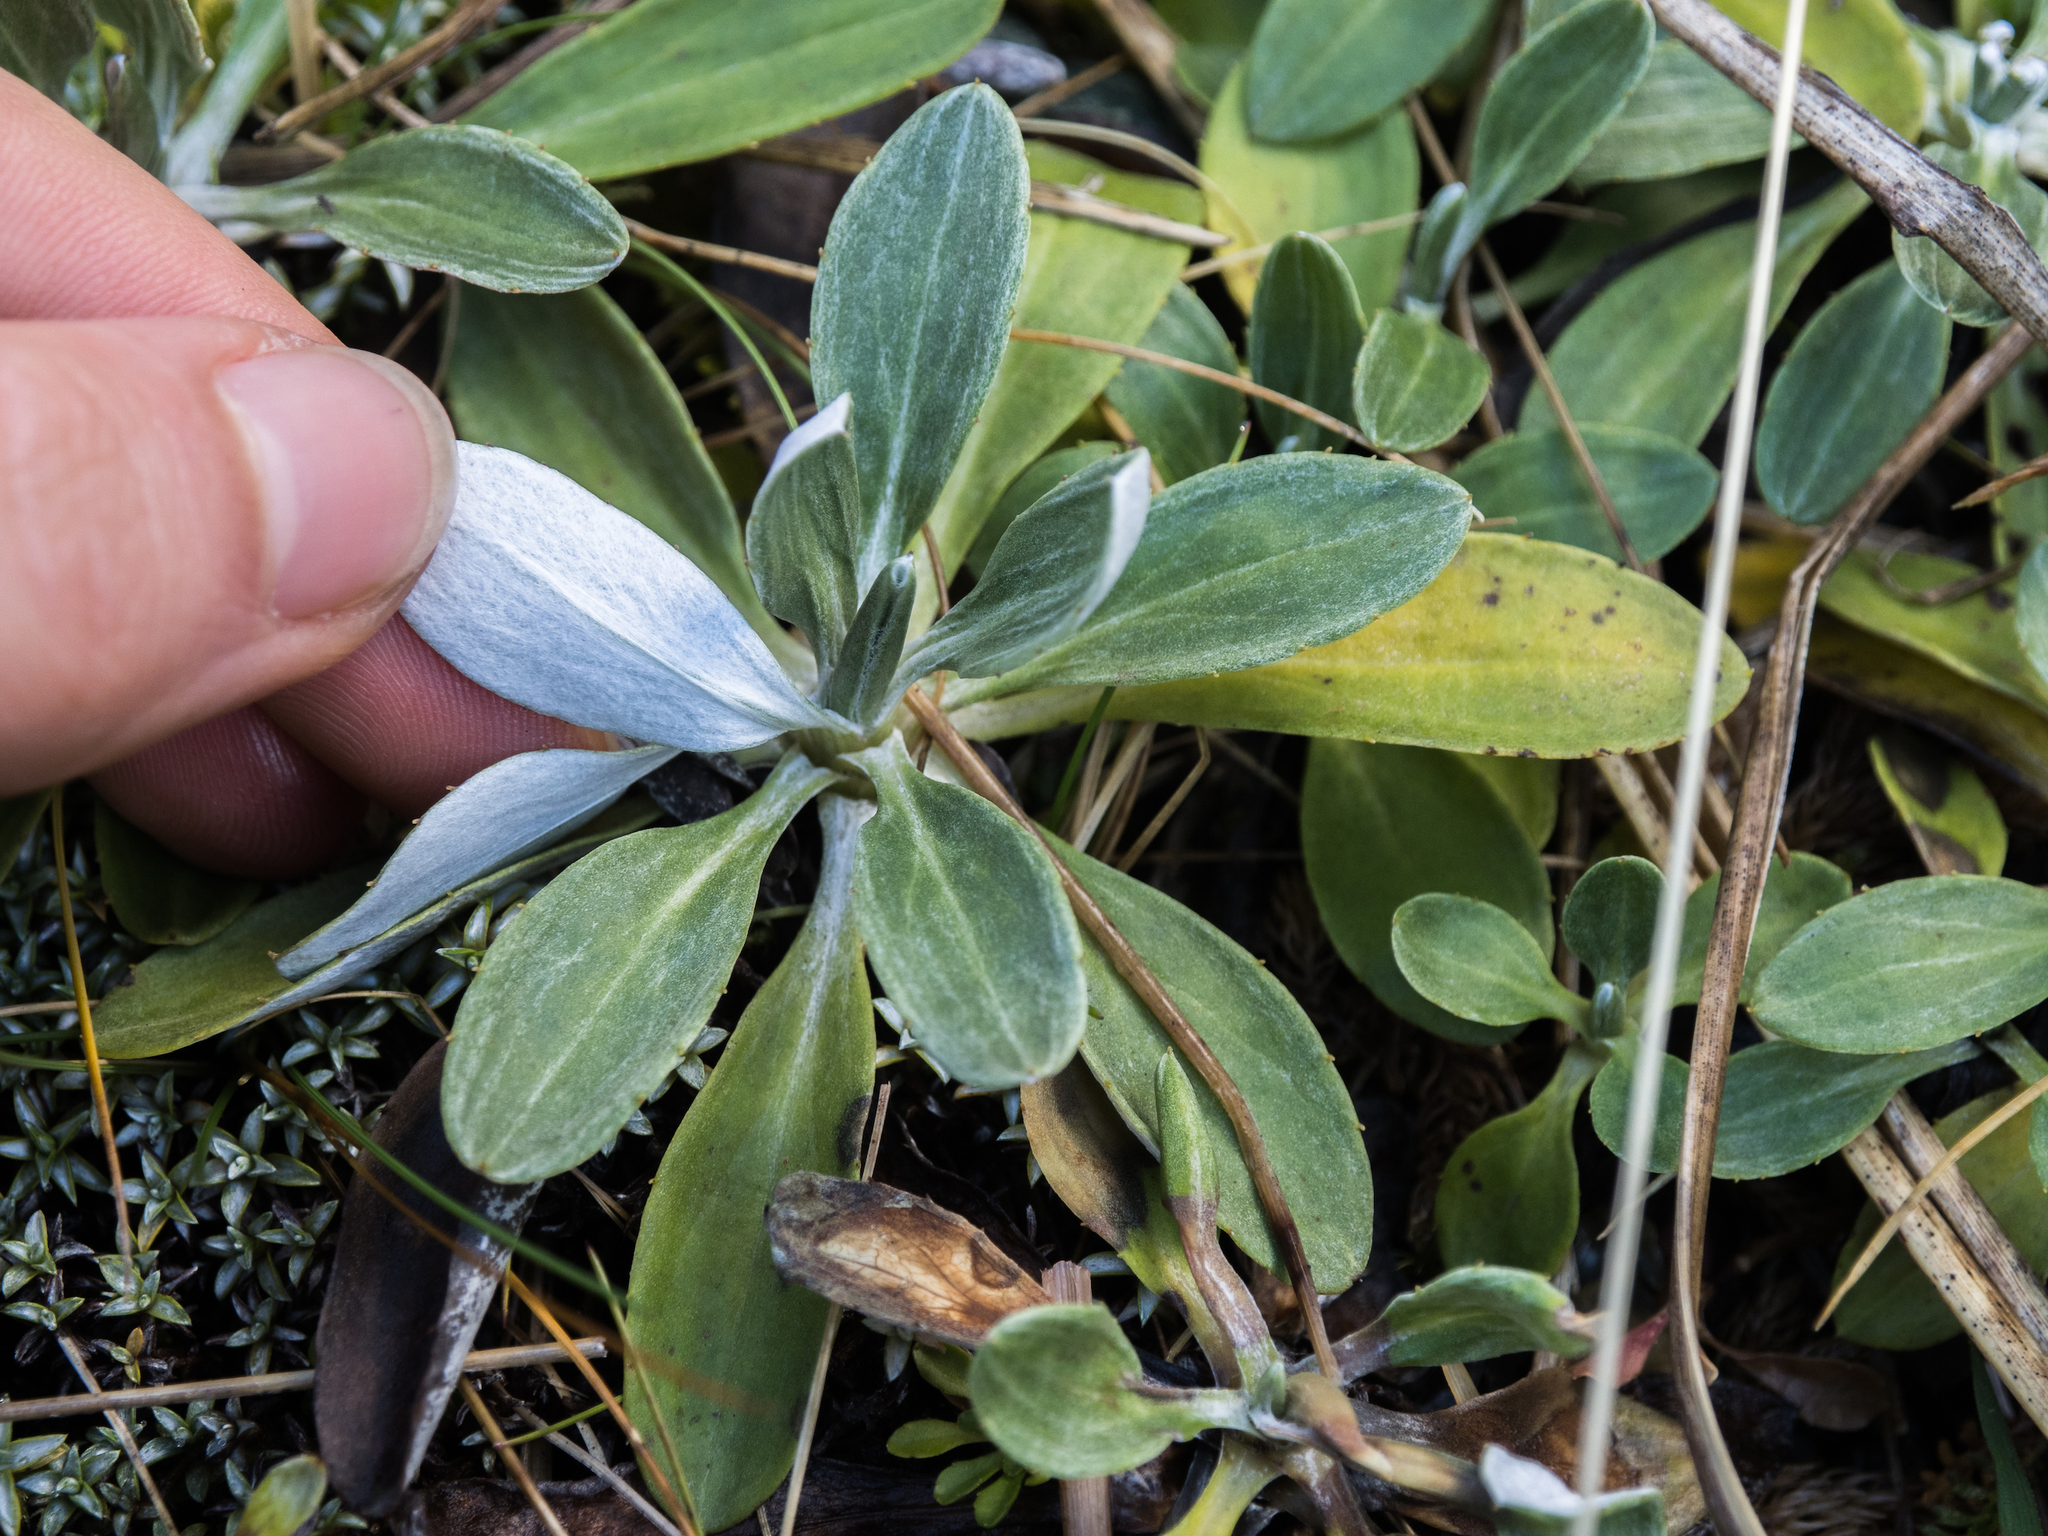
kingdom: Plantae
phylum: Tracheophyta
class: Magnoliopsida
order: Asterales
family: Asteraceae
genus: Celmisia
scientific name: Celmisia durietzii
